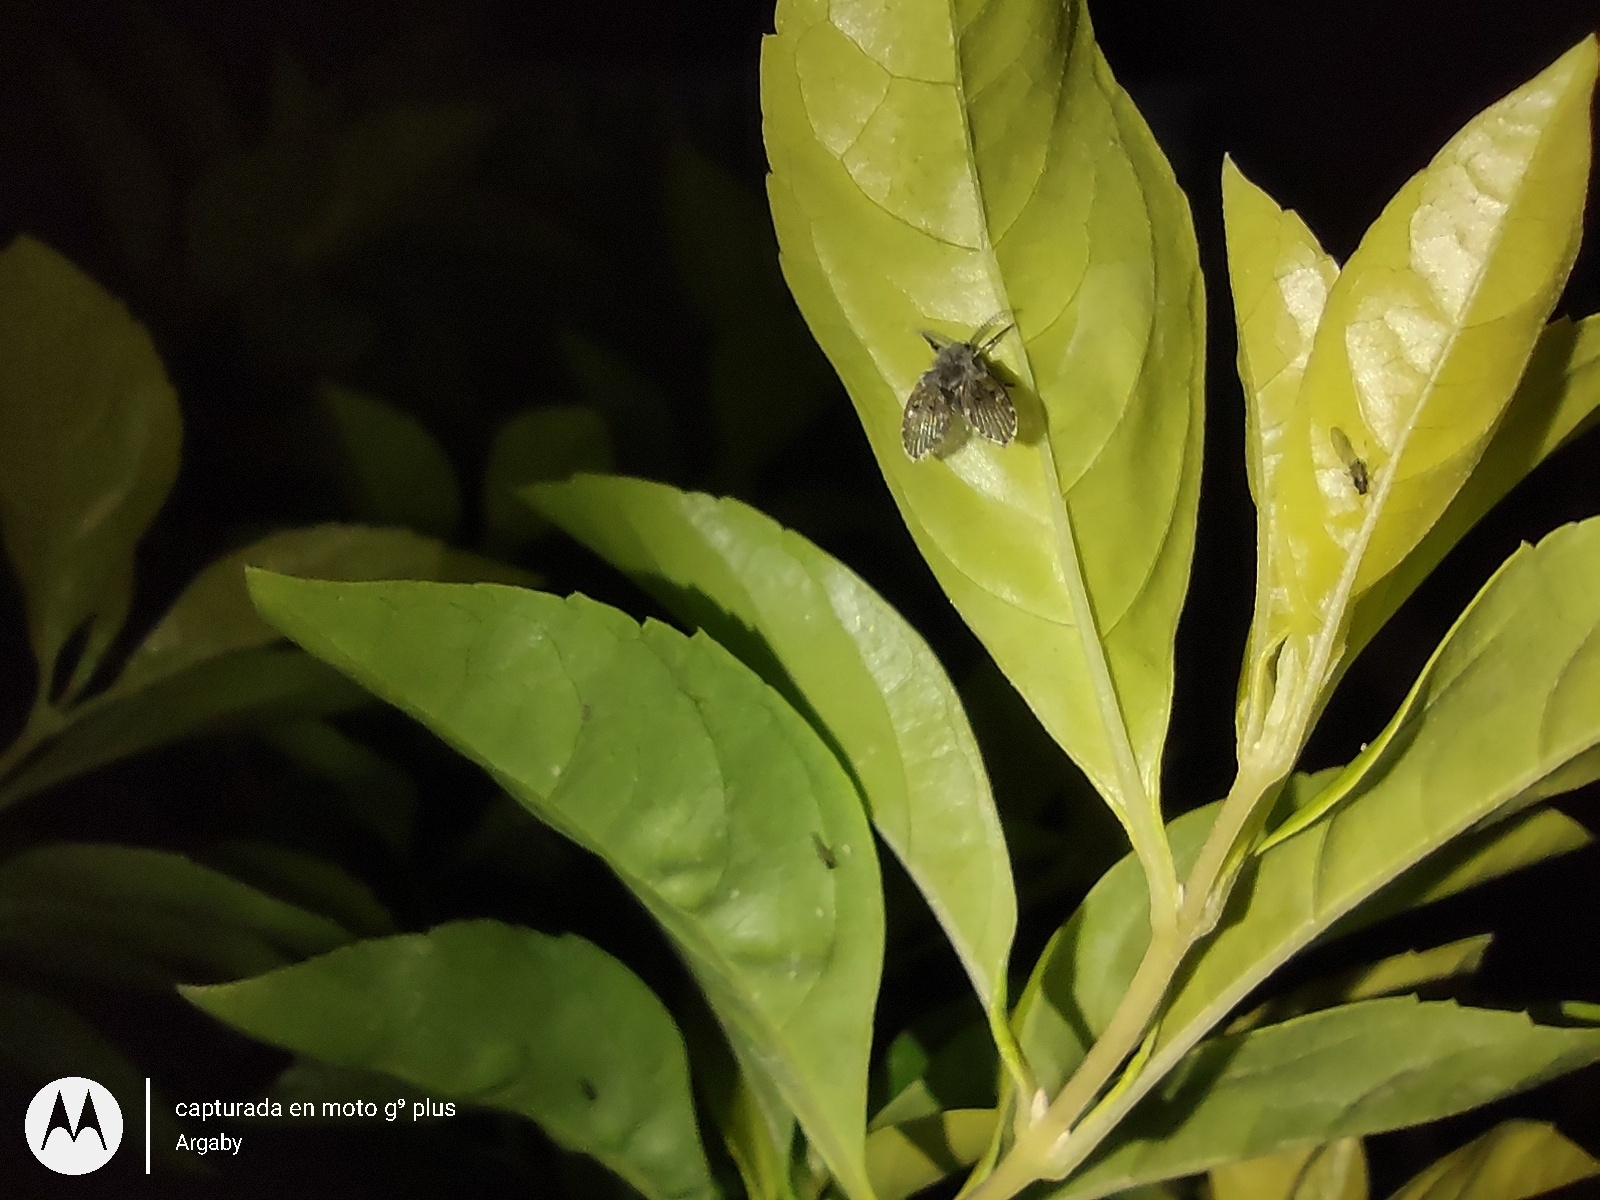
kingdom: Animalia
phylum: Arthropoda
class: Insecta
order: Diptera
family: Psychodidae
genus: Clogmia
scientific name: Clogmia albipunctatus
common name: White-spotted moth fly
